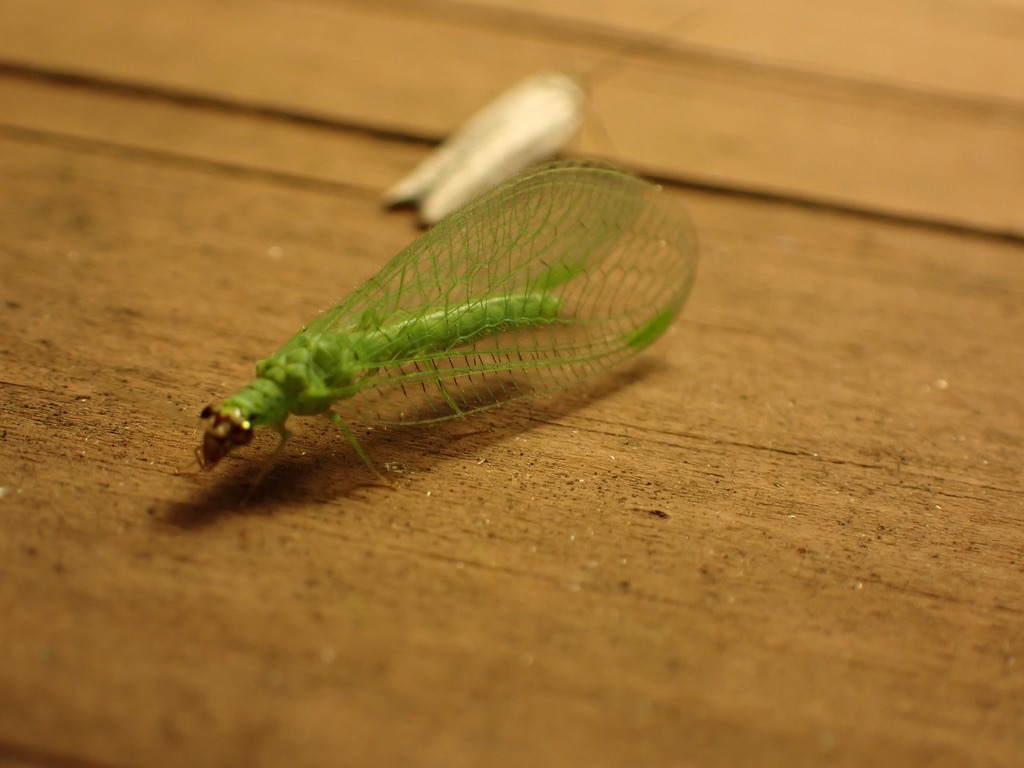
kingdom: Animalia
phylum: Arthropoda
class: Insecta
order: Neuroptera
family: Chrysopidae
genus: Chrysopa
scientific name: Chrysopa oculata
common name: Golden-eyed lacewing
